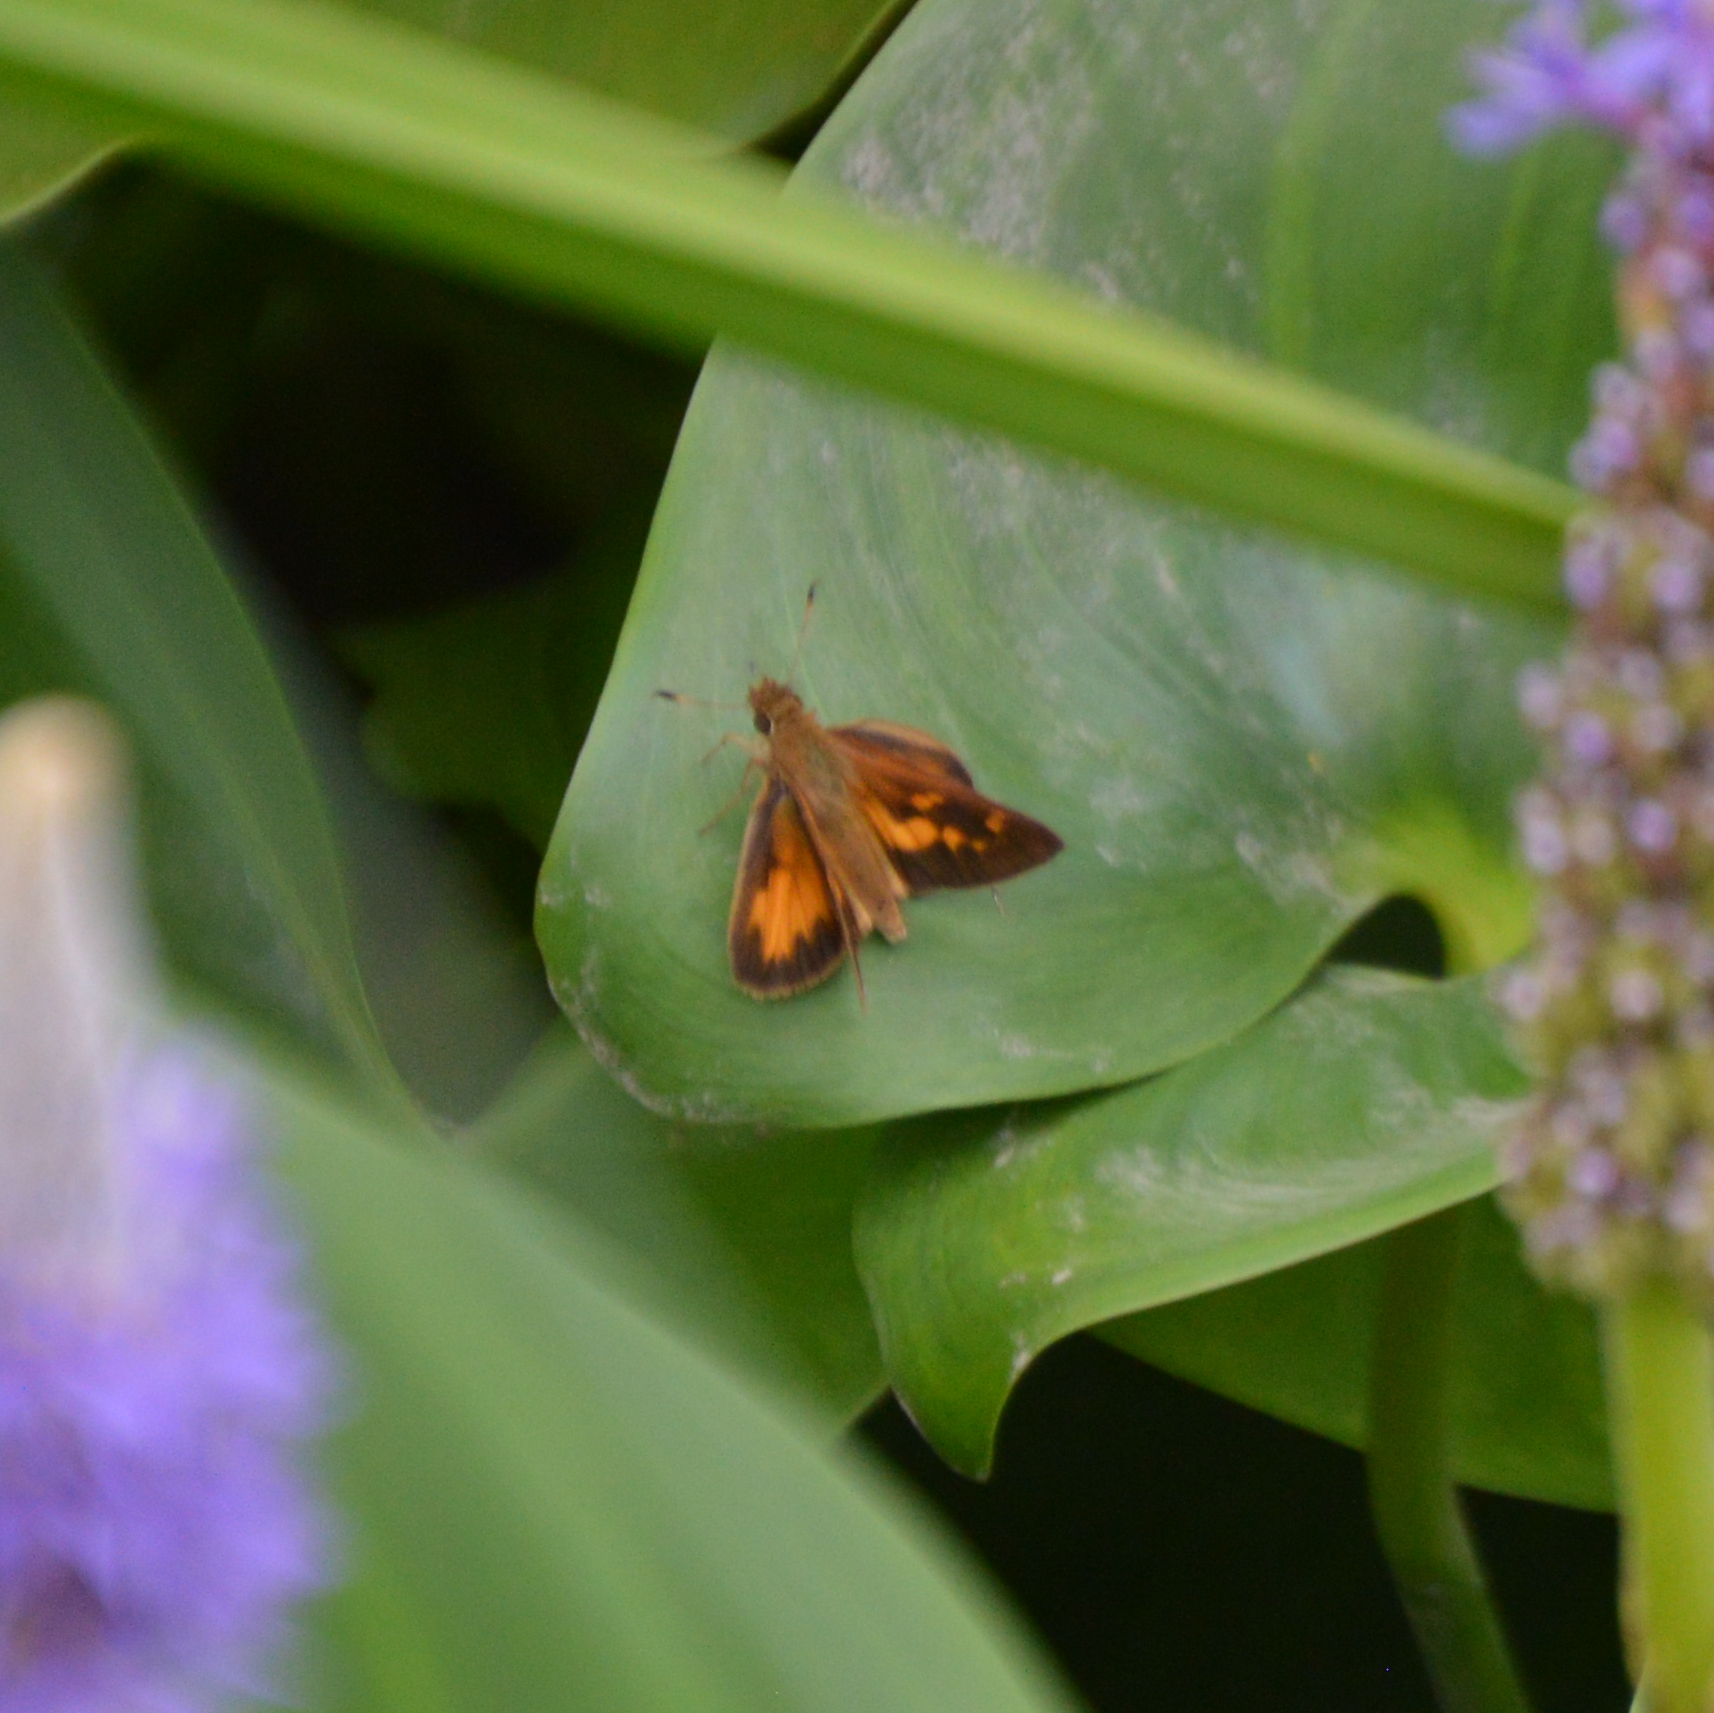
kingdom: Animalia
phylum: Arthropoda
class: Insecta
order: Lepidoptera
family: Hesperiidae
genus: Poanes
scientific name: Poanes viator
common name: Broad-winged skipper
